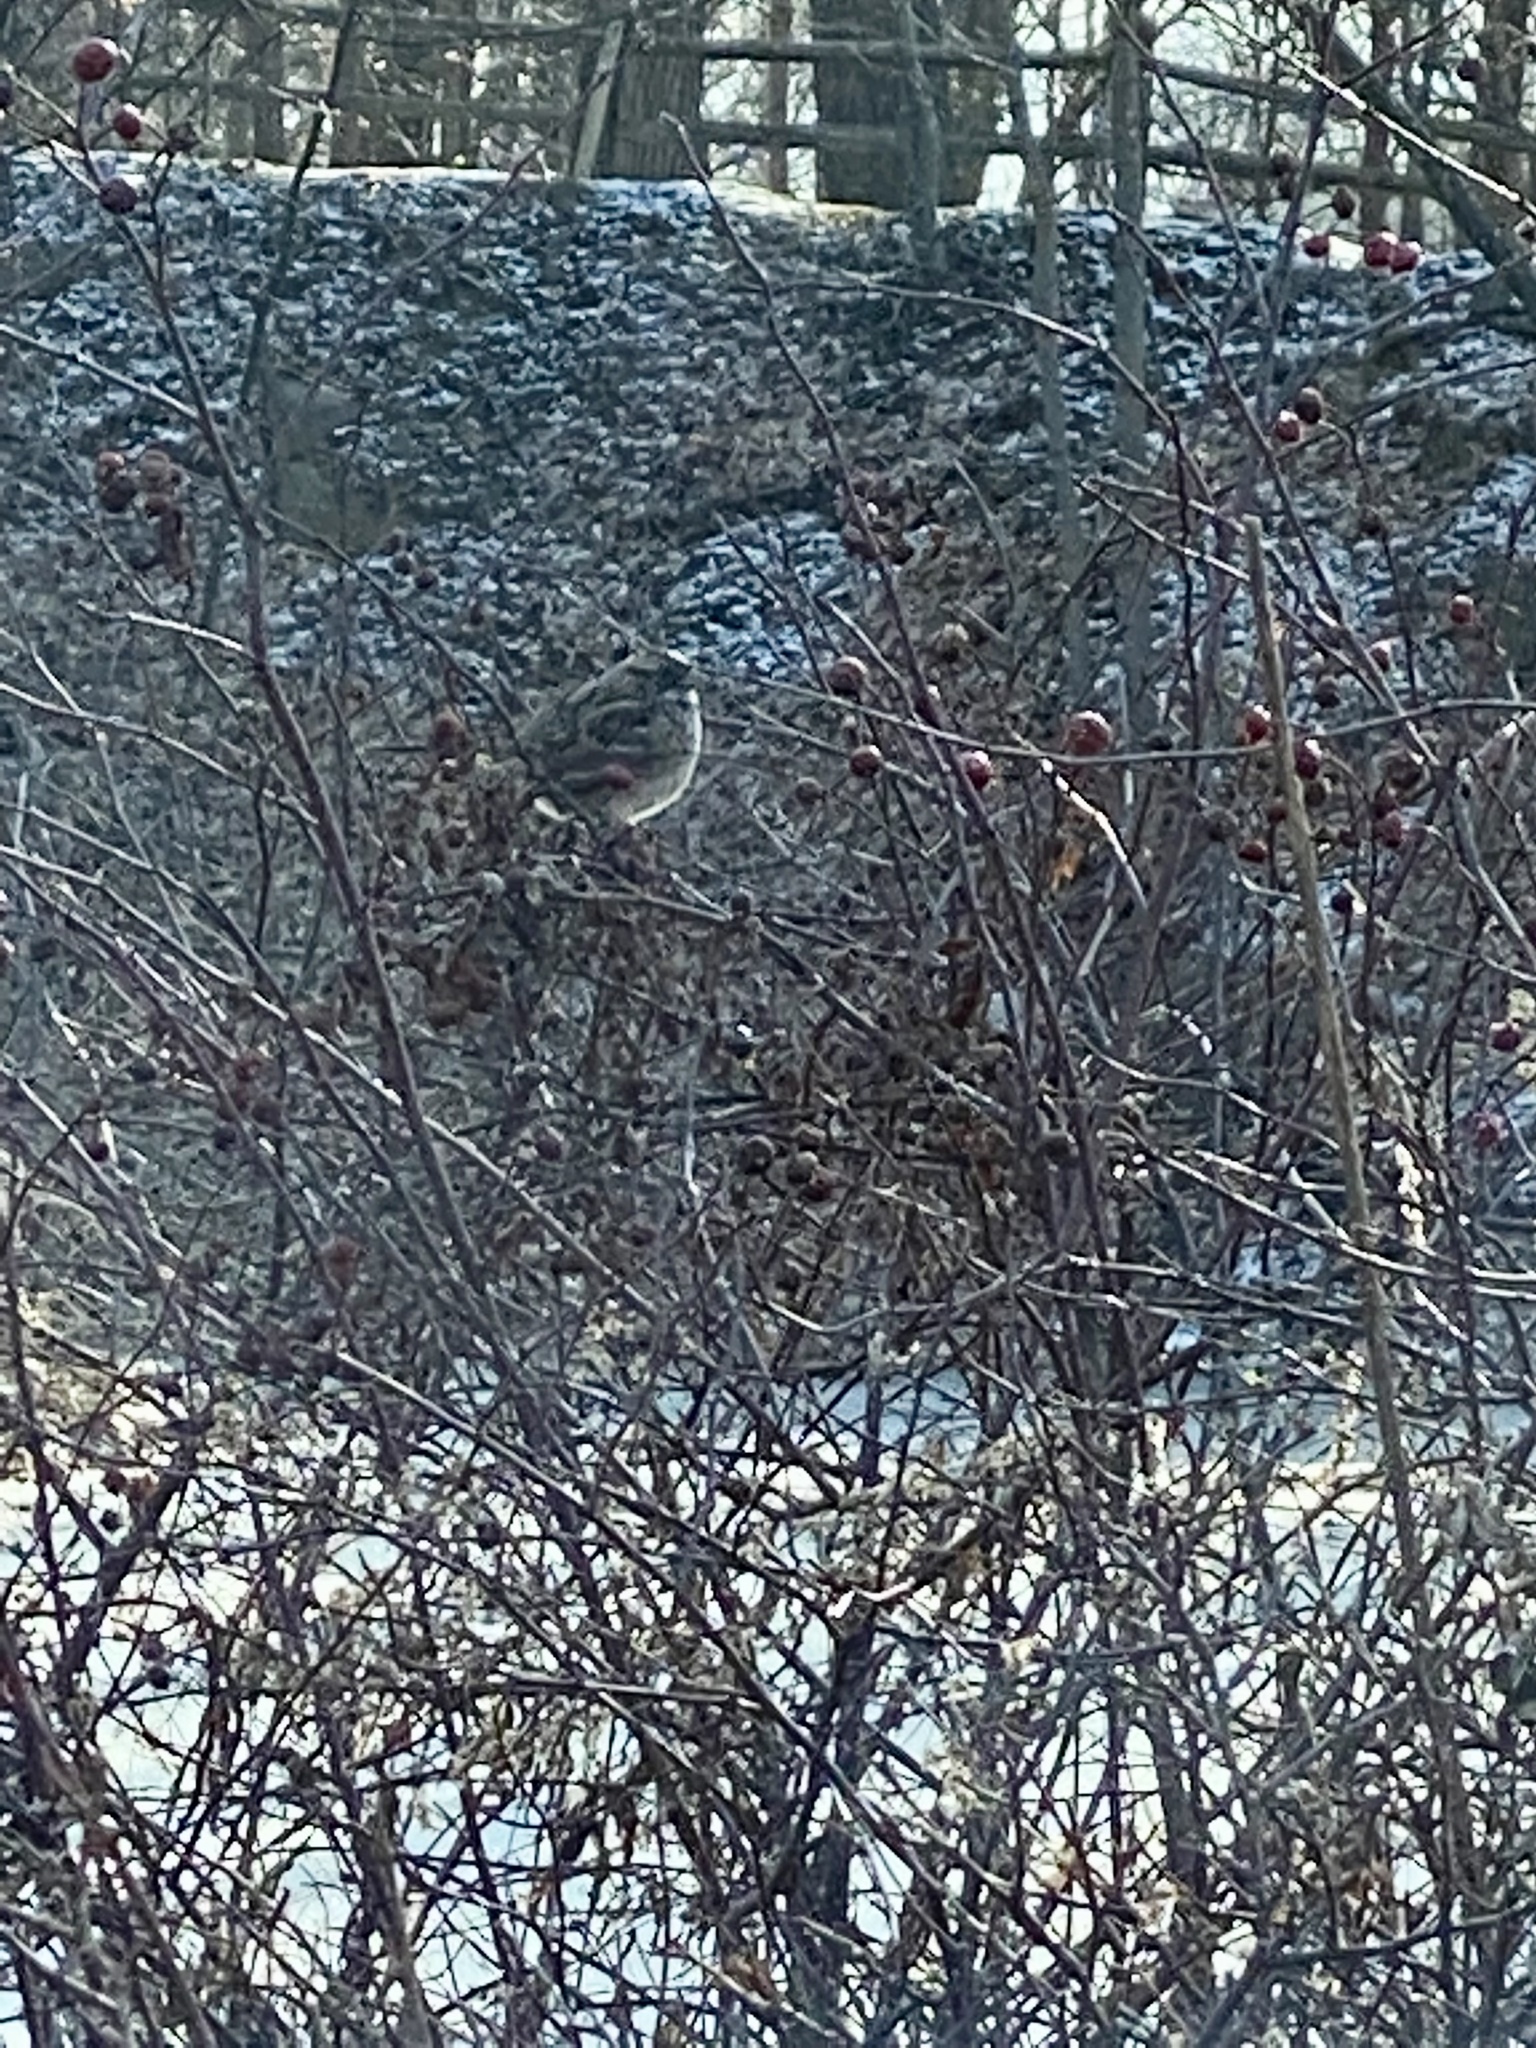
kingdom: Animalia
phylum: Chordata
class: Aves
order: Passeriformes
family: Passerellidae
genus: Zonotrichia
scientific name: Zonotrichia albicollis
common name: White-throated sparrow
